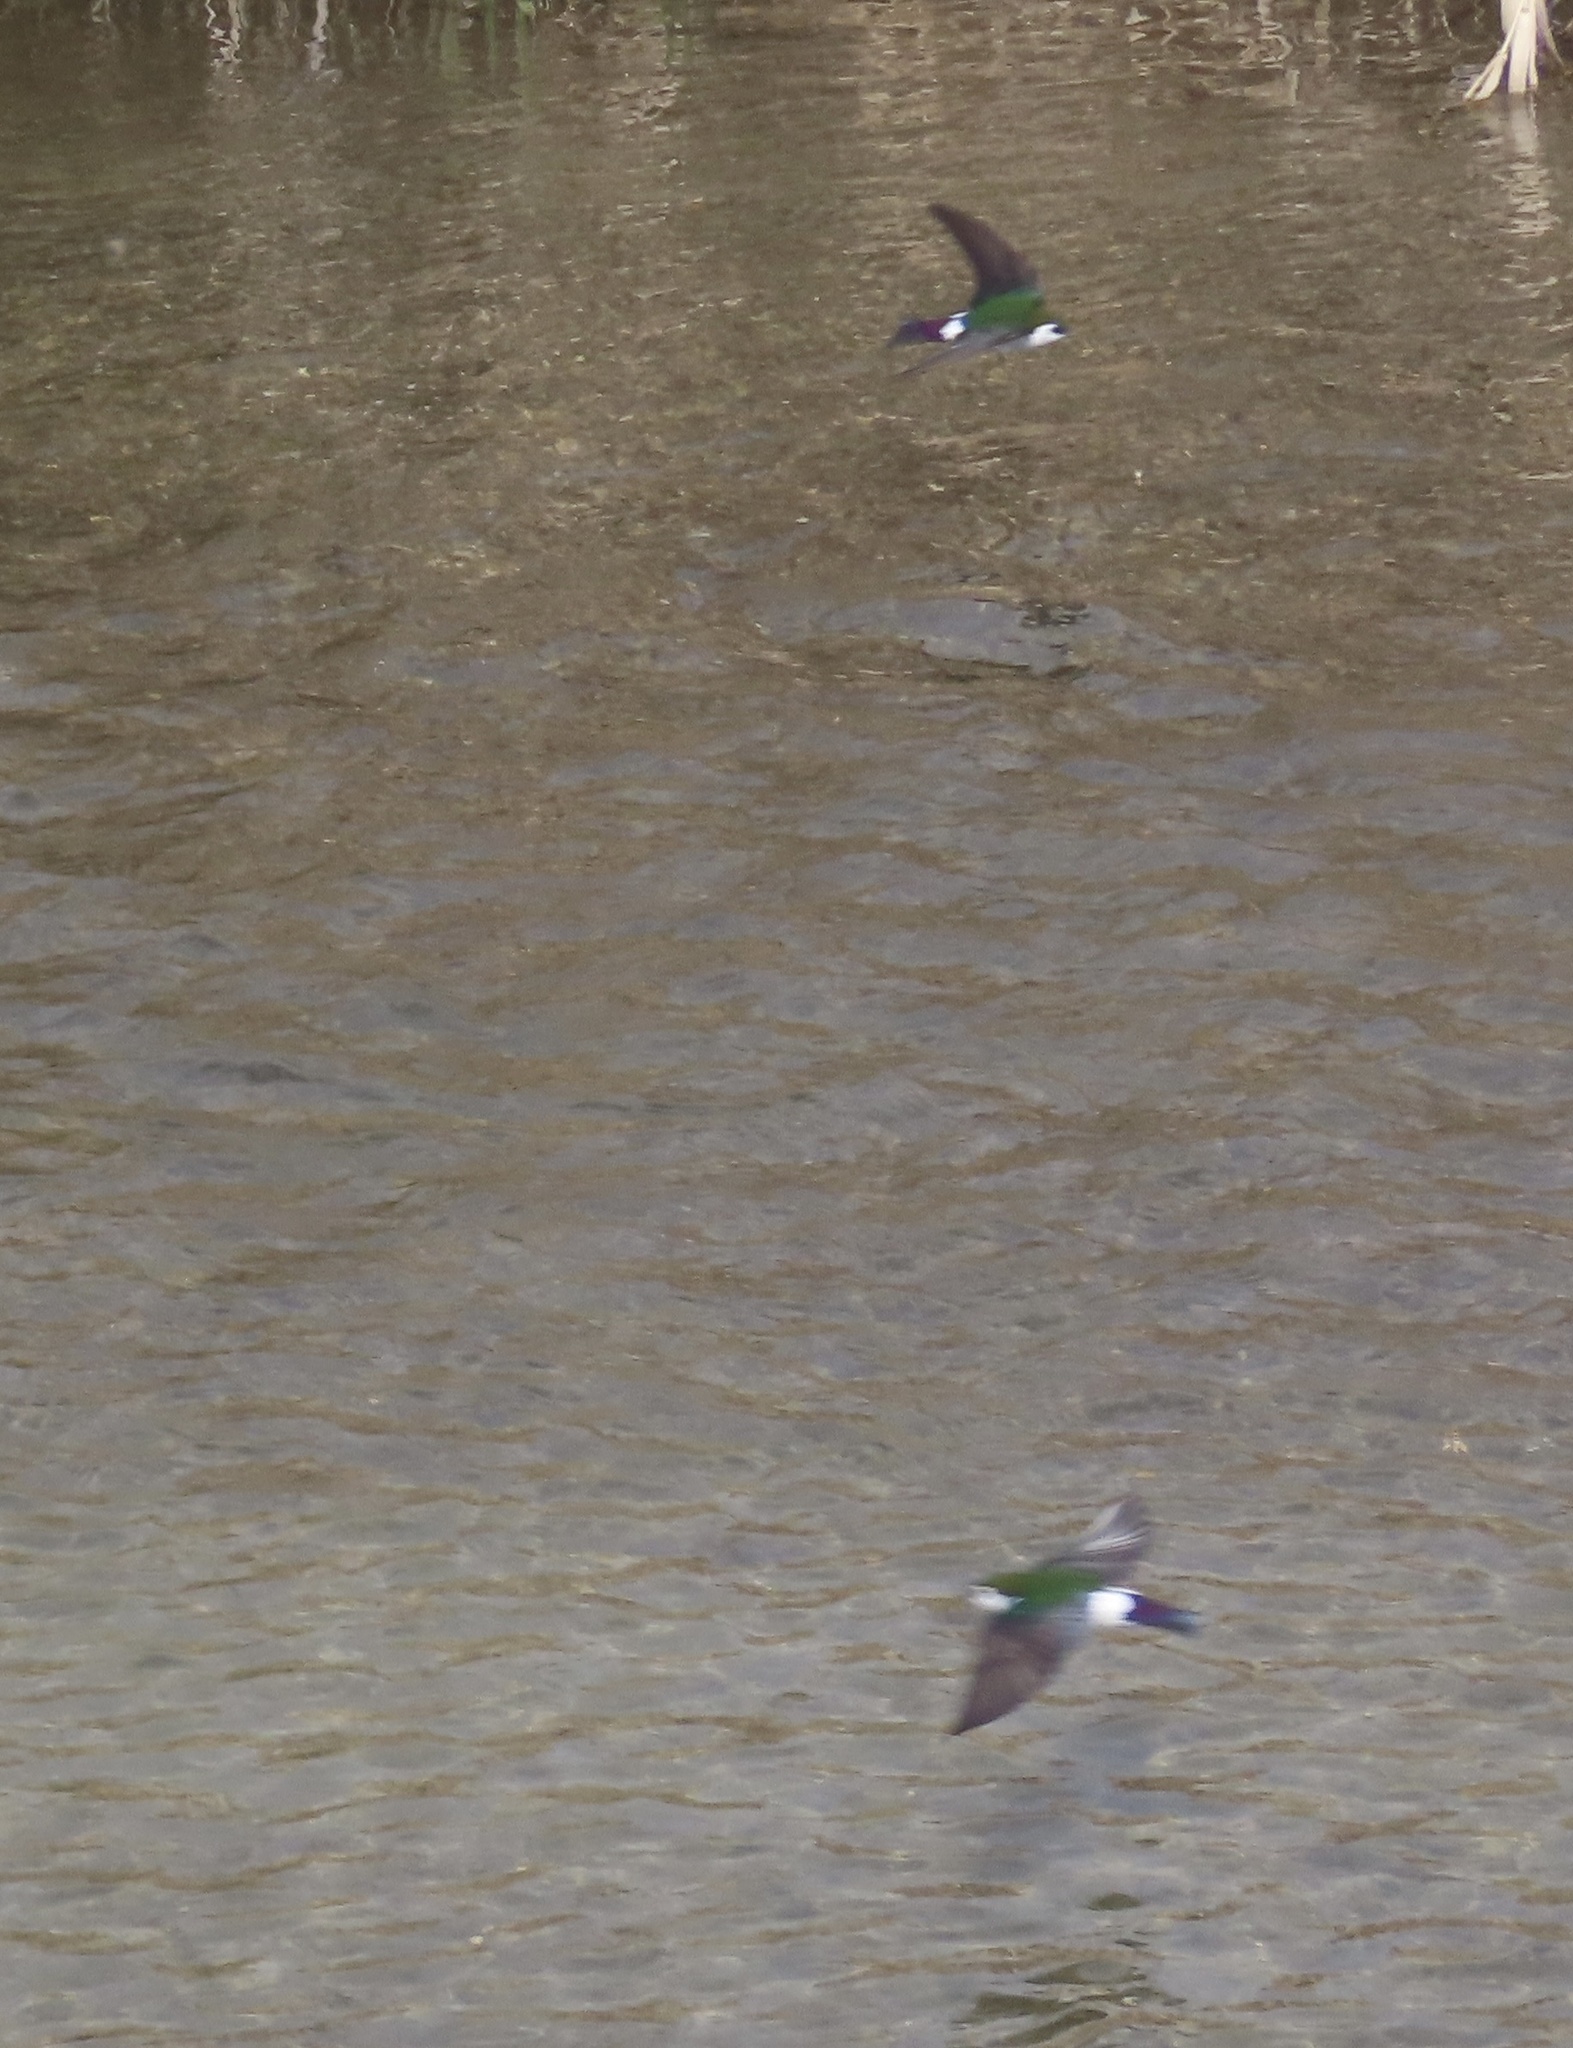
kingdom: Animalia
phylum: Chordata
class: Aves
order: Passeriformes
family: Hirundinidae
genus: Tachycineta
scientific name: Tachycineta thalassina
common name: Violet-green swallow
